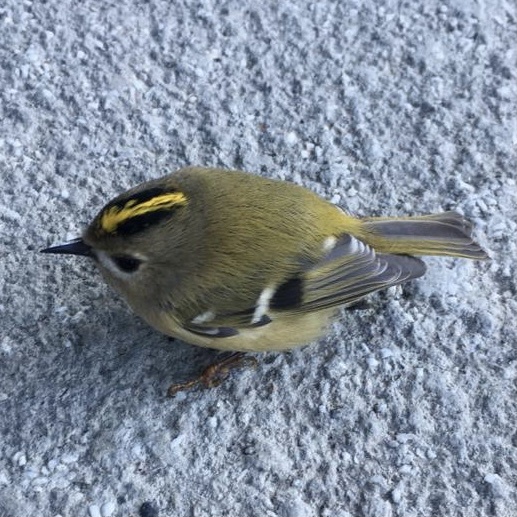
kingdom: Animalia
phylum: Chordata
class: Aves
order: Passeriformes
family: Regulidae
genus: Regulus
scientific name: Regulus regulus
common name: Goldcrest
